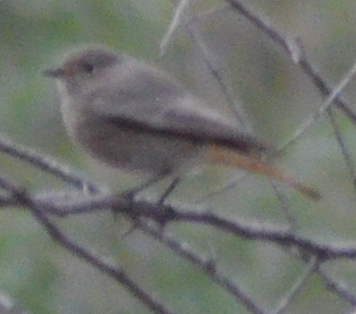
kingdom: Animalia
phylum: Chordata
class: Aves
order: Passeriformes
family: Muscicapidae
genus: Phoenicurus
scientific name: Phoenicurus ochruros
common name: Black redstart
